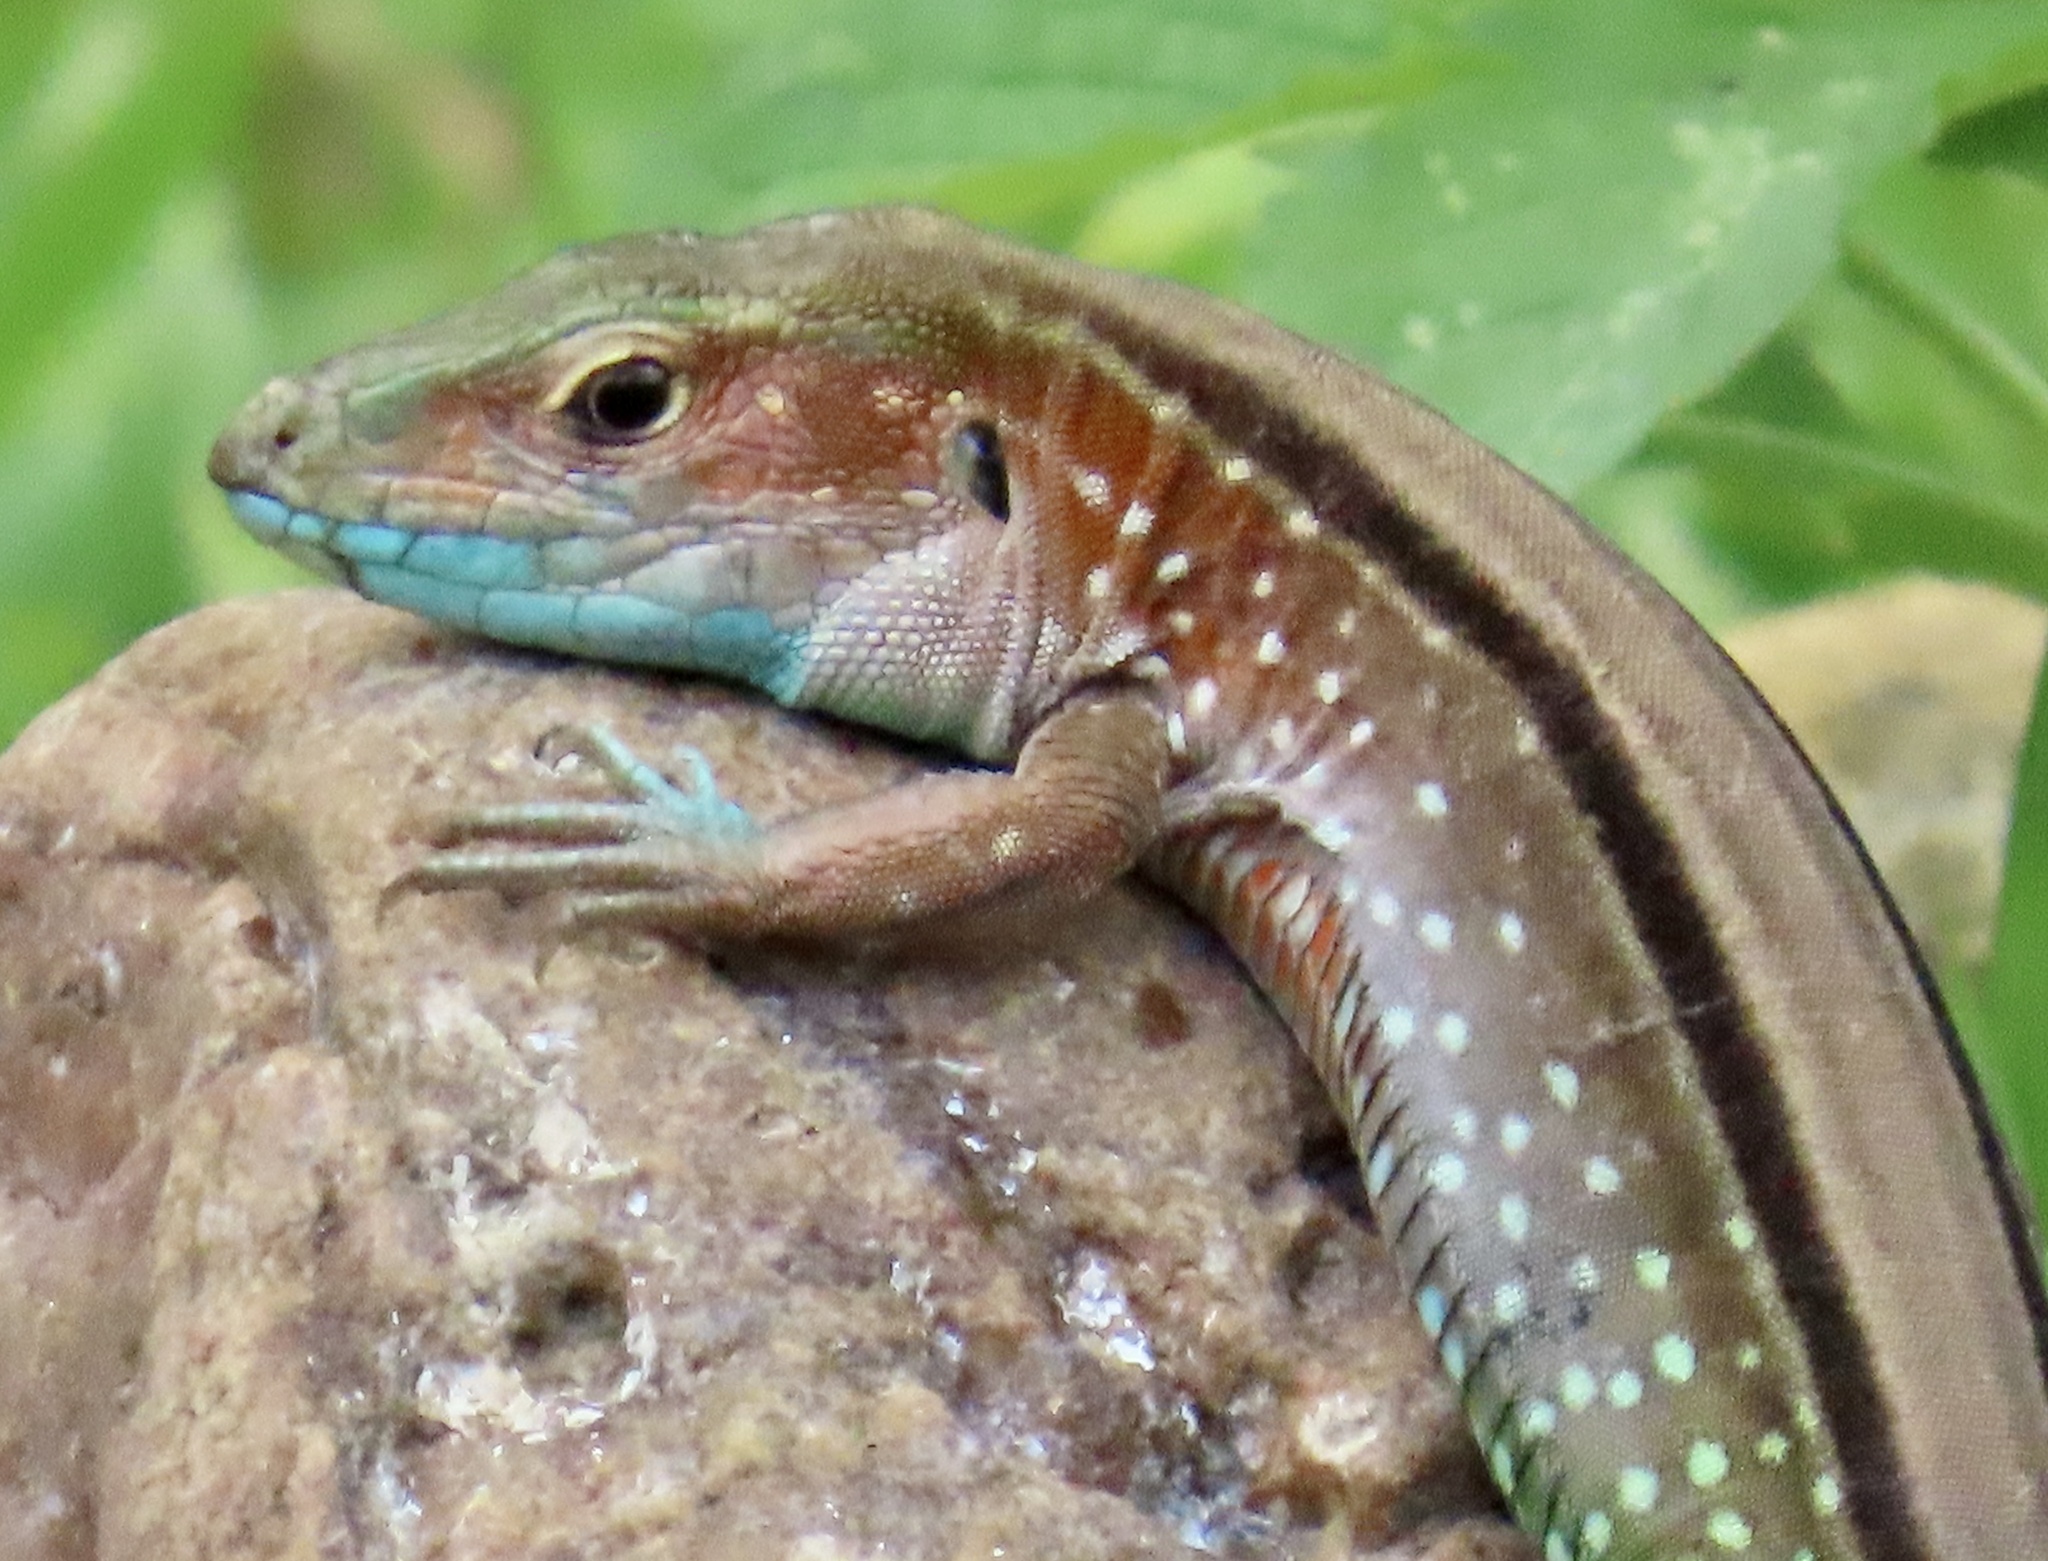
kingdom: Animalia
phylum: Chordata
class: Squamata
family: Teiidae
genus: Cnemidophorus
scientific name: Cnemidophorus duellmani
